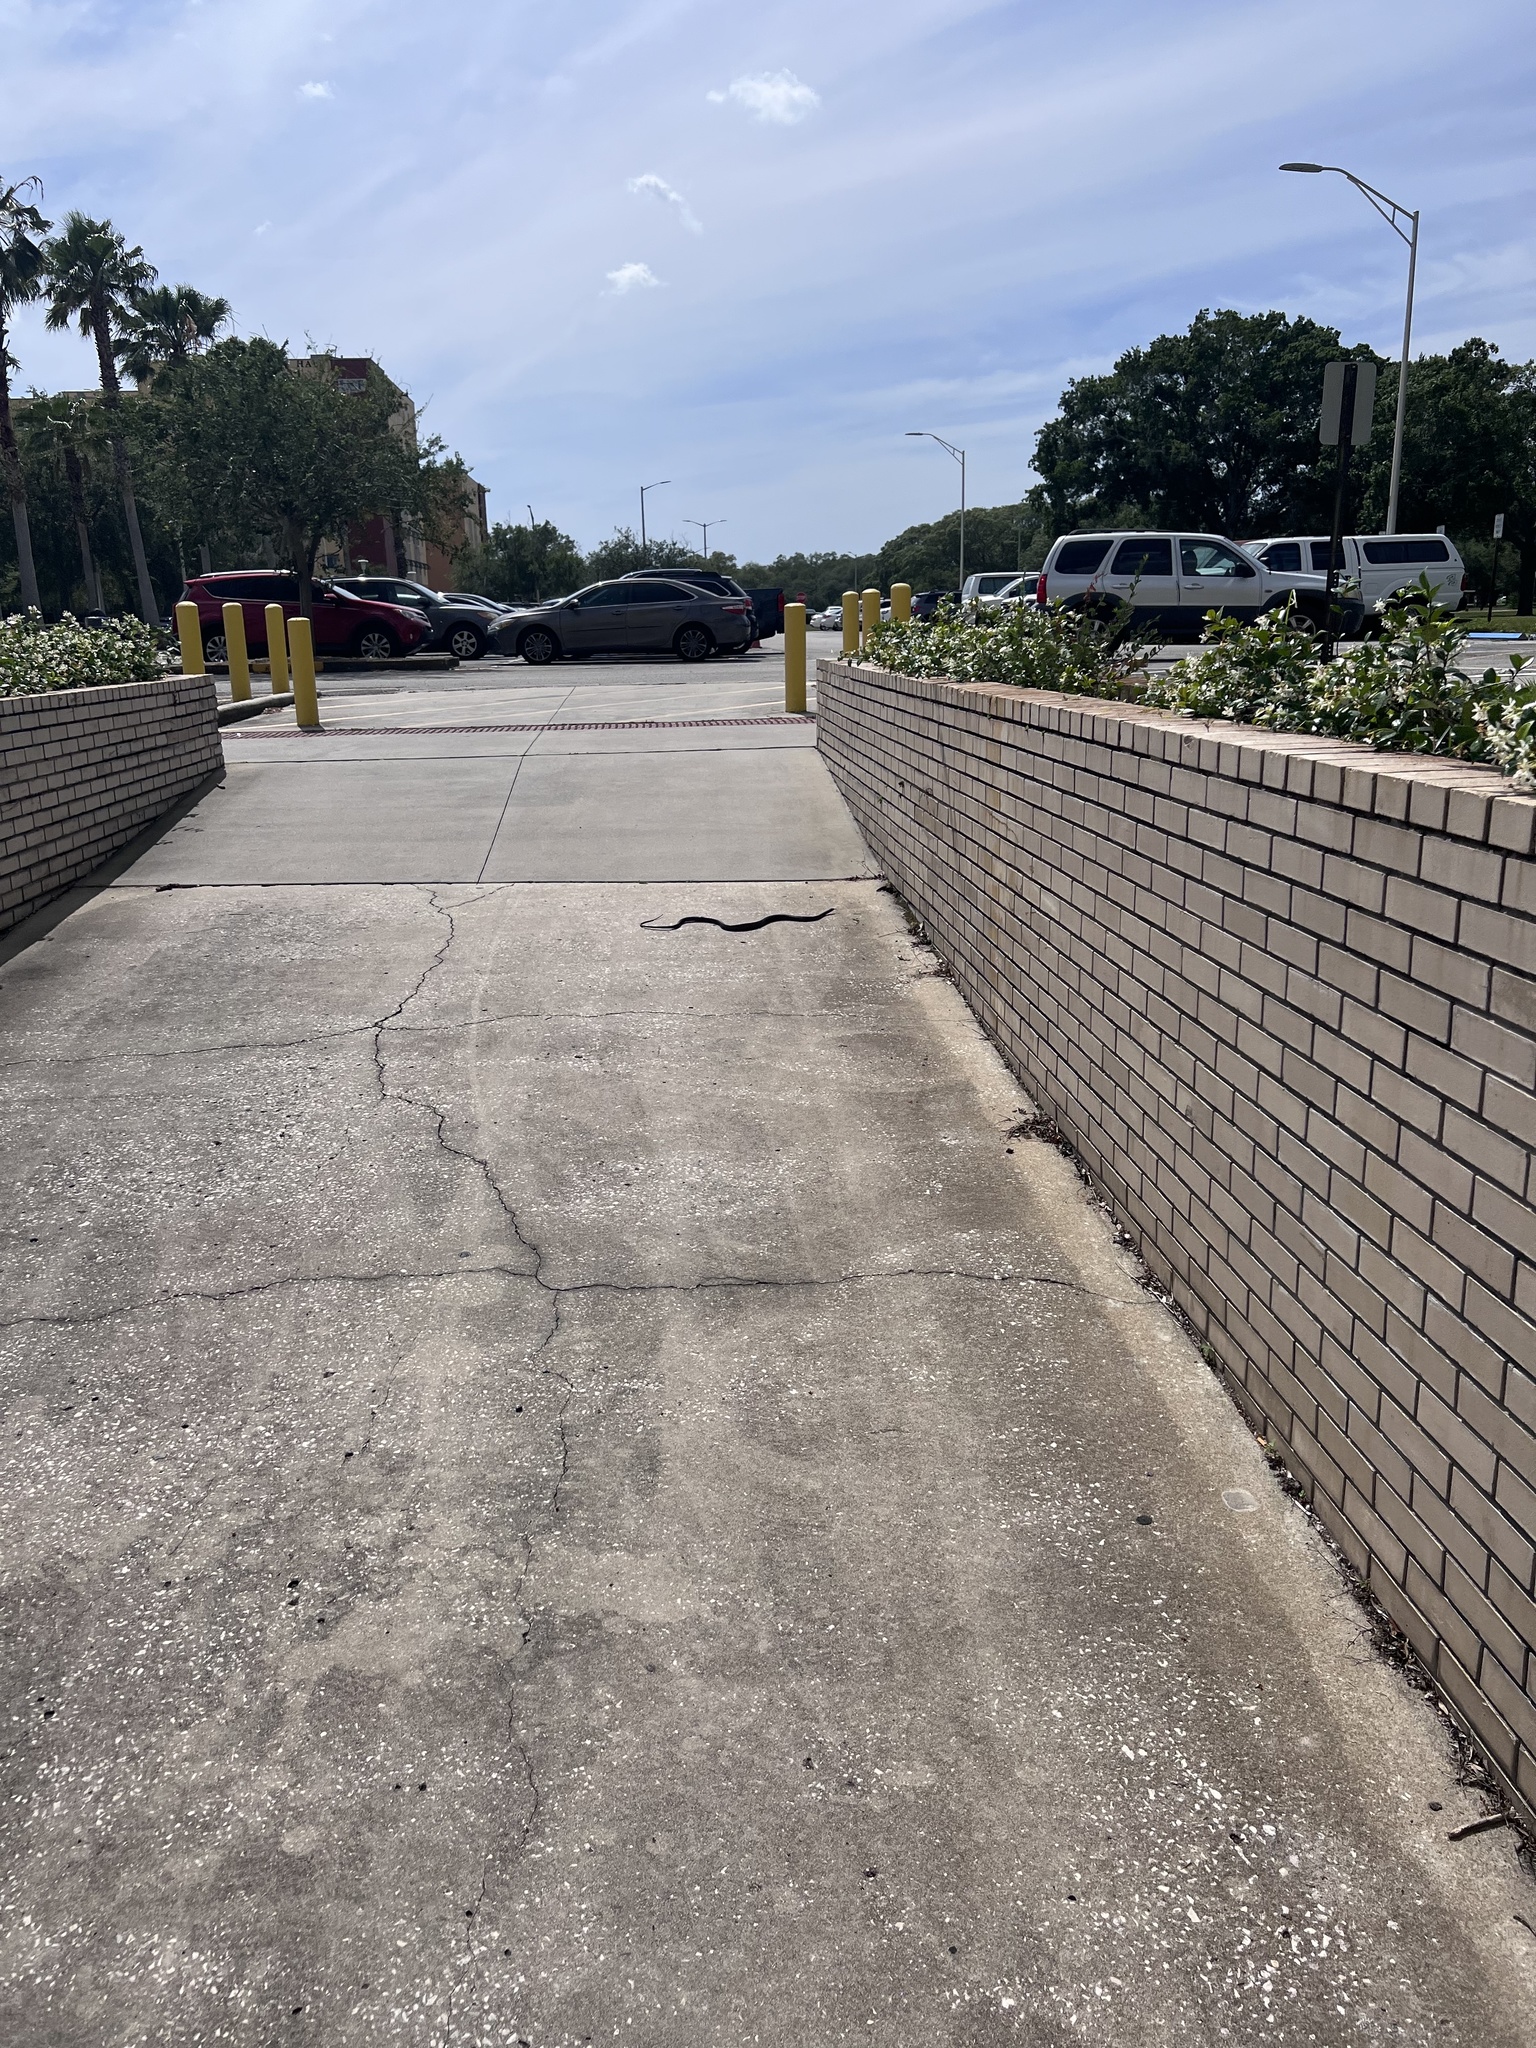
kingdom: Animalia
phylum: Chordata
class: Squamata
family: Colubridae
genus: Coluber
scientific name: Coluber constrictor
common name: Eastern racer
